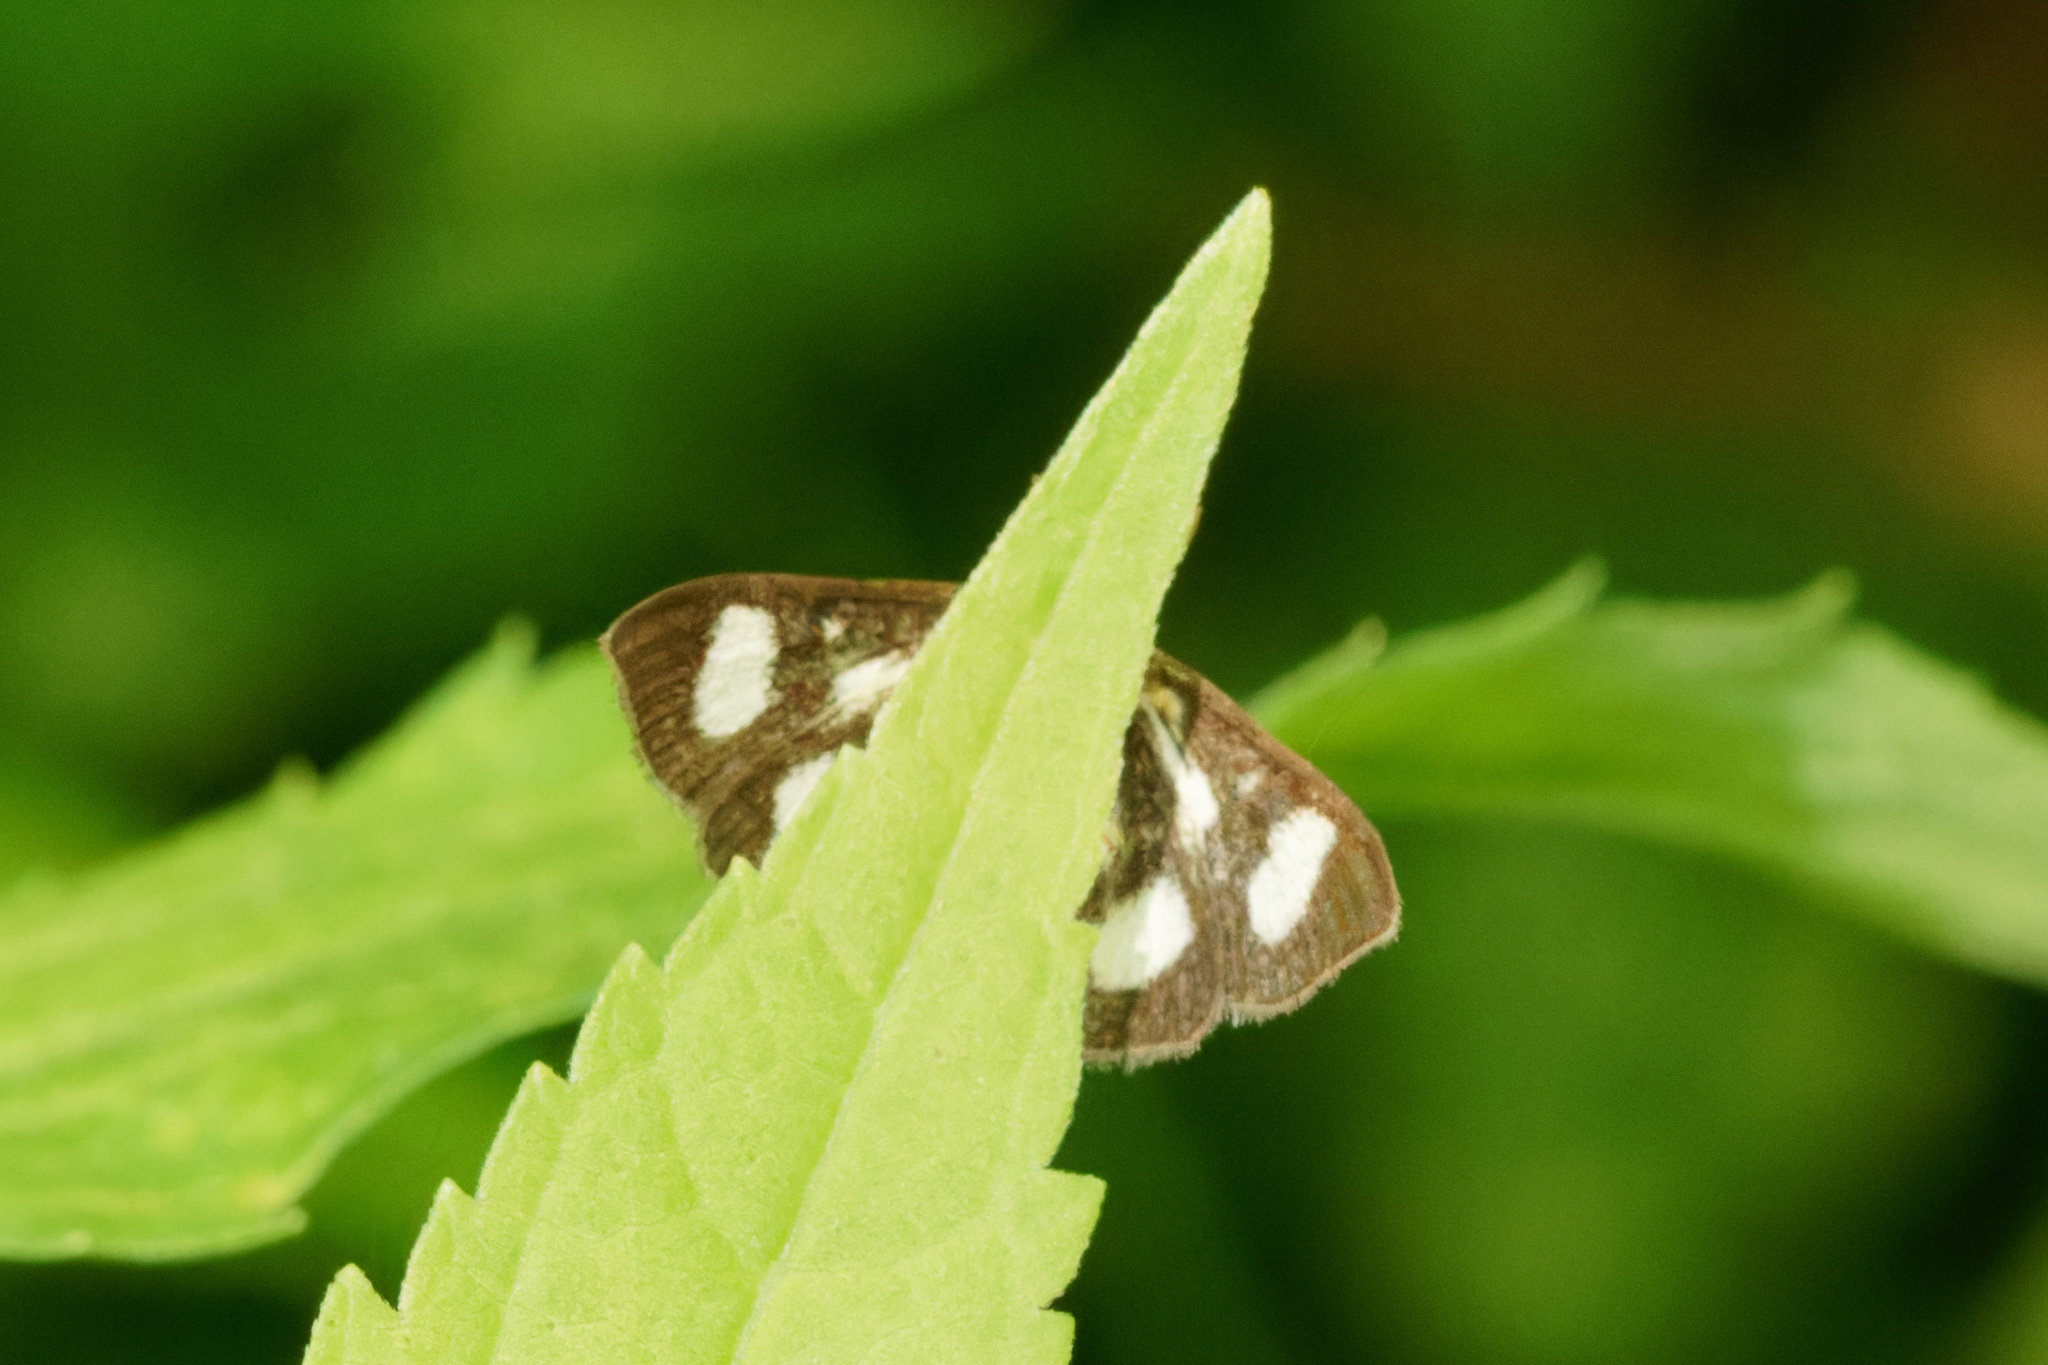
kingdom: Animalia
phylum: Arthropoda
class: Insecta
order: Lepidoptera
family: Crambidae
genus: Anania
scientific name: Anania funebris
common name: White-spotted sable moth
